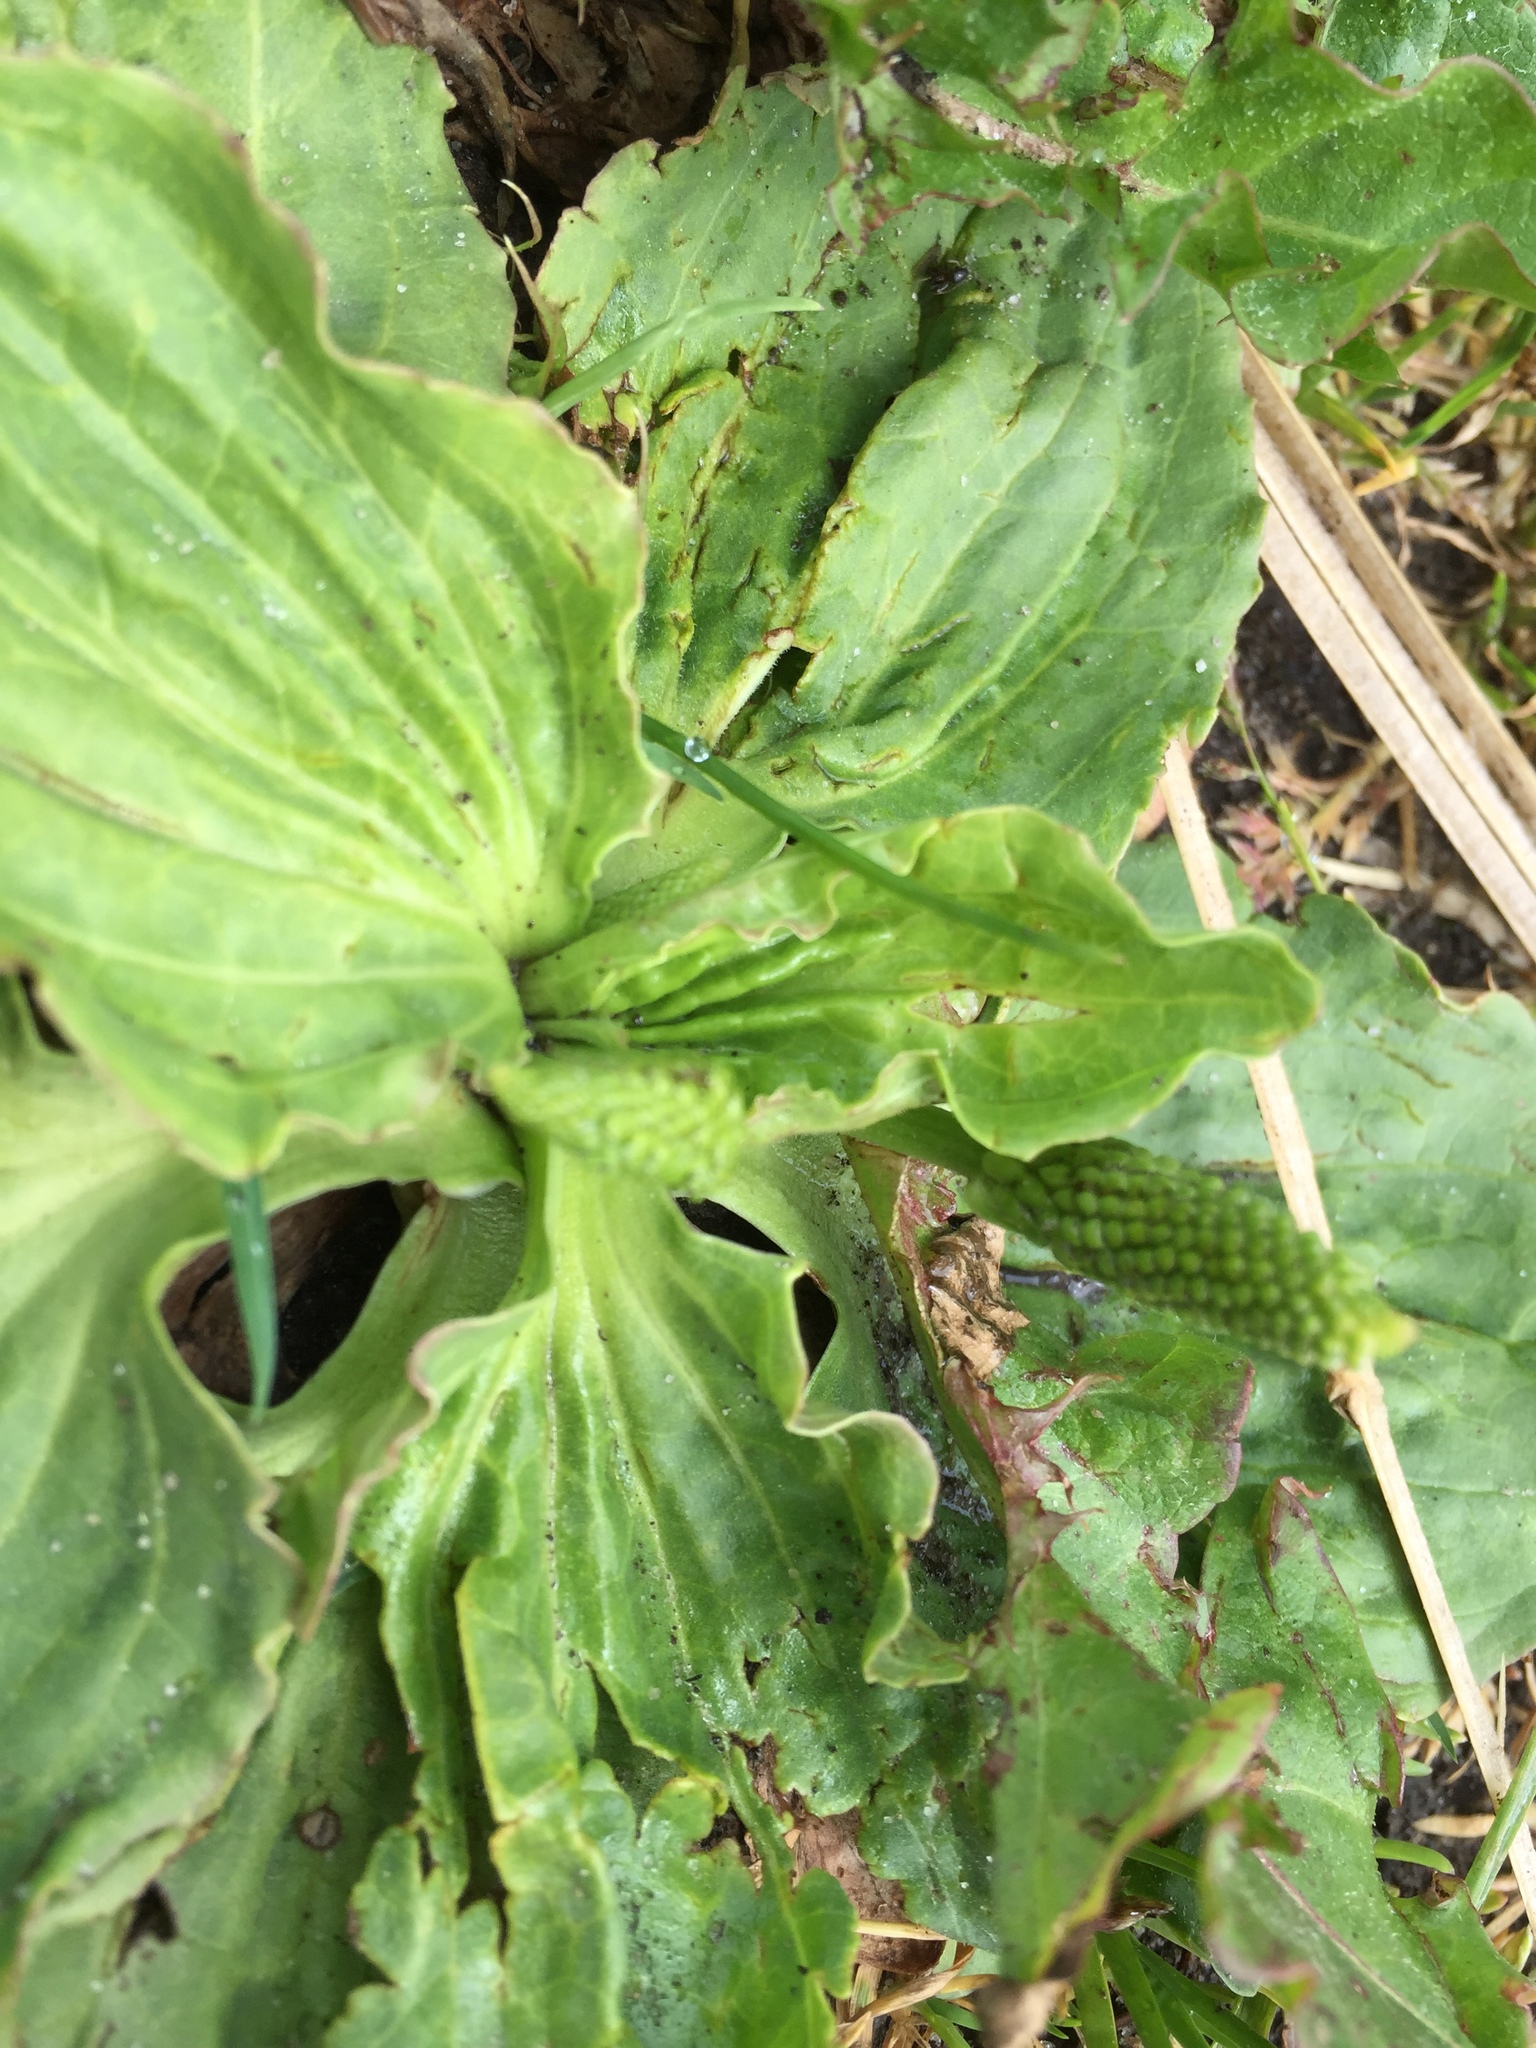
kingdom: Plantae
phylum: Tracheophyta
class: Magnoliopsida
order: Lamiales
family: Plantaginaceae
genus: Plantago
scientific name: Plantago major
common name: Common plantain
